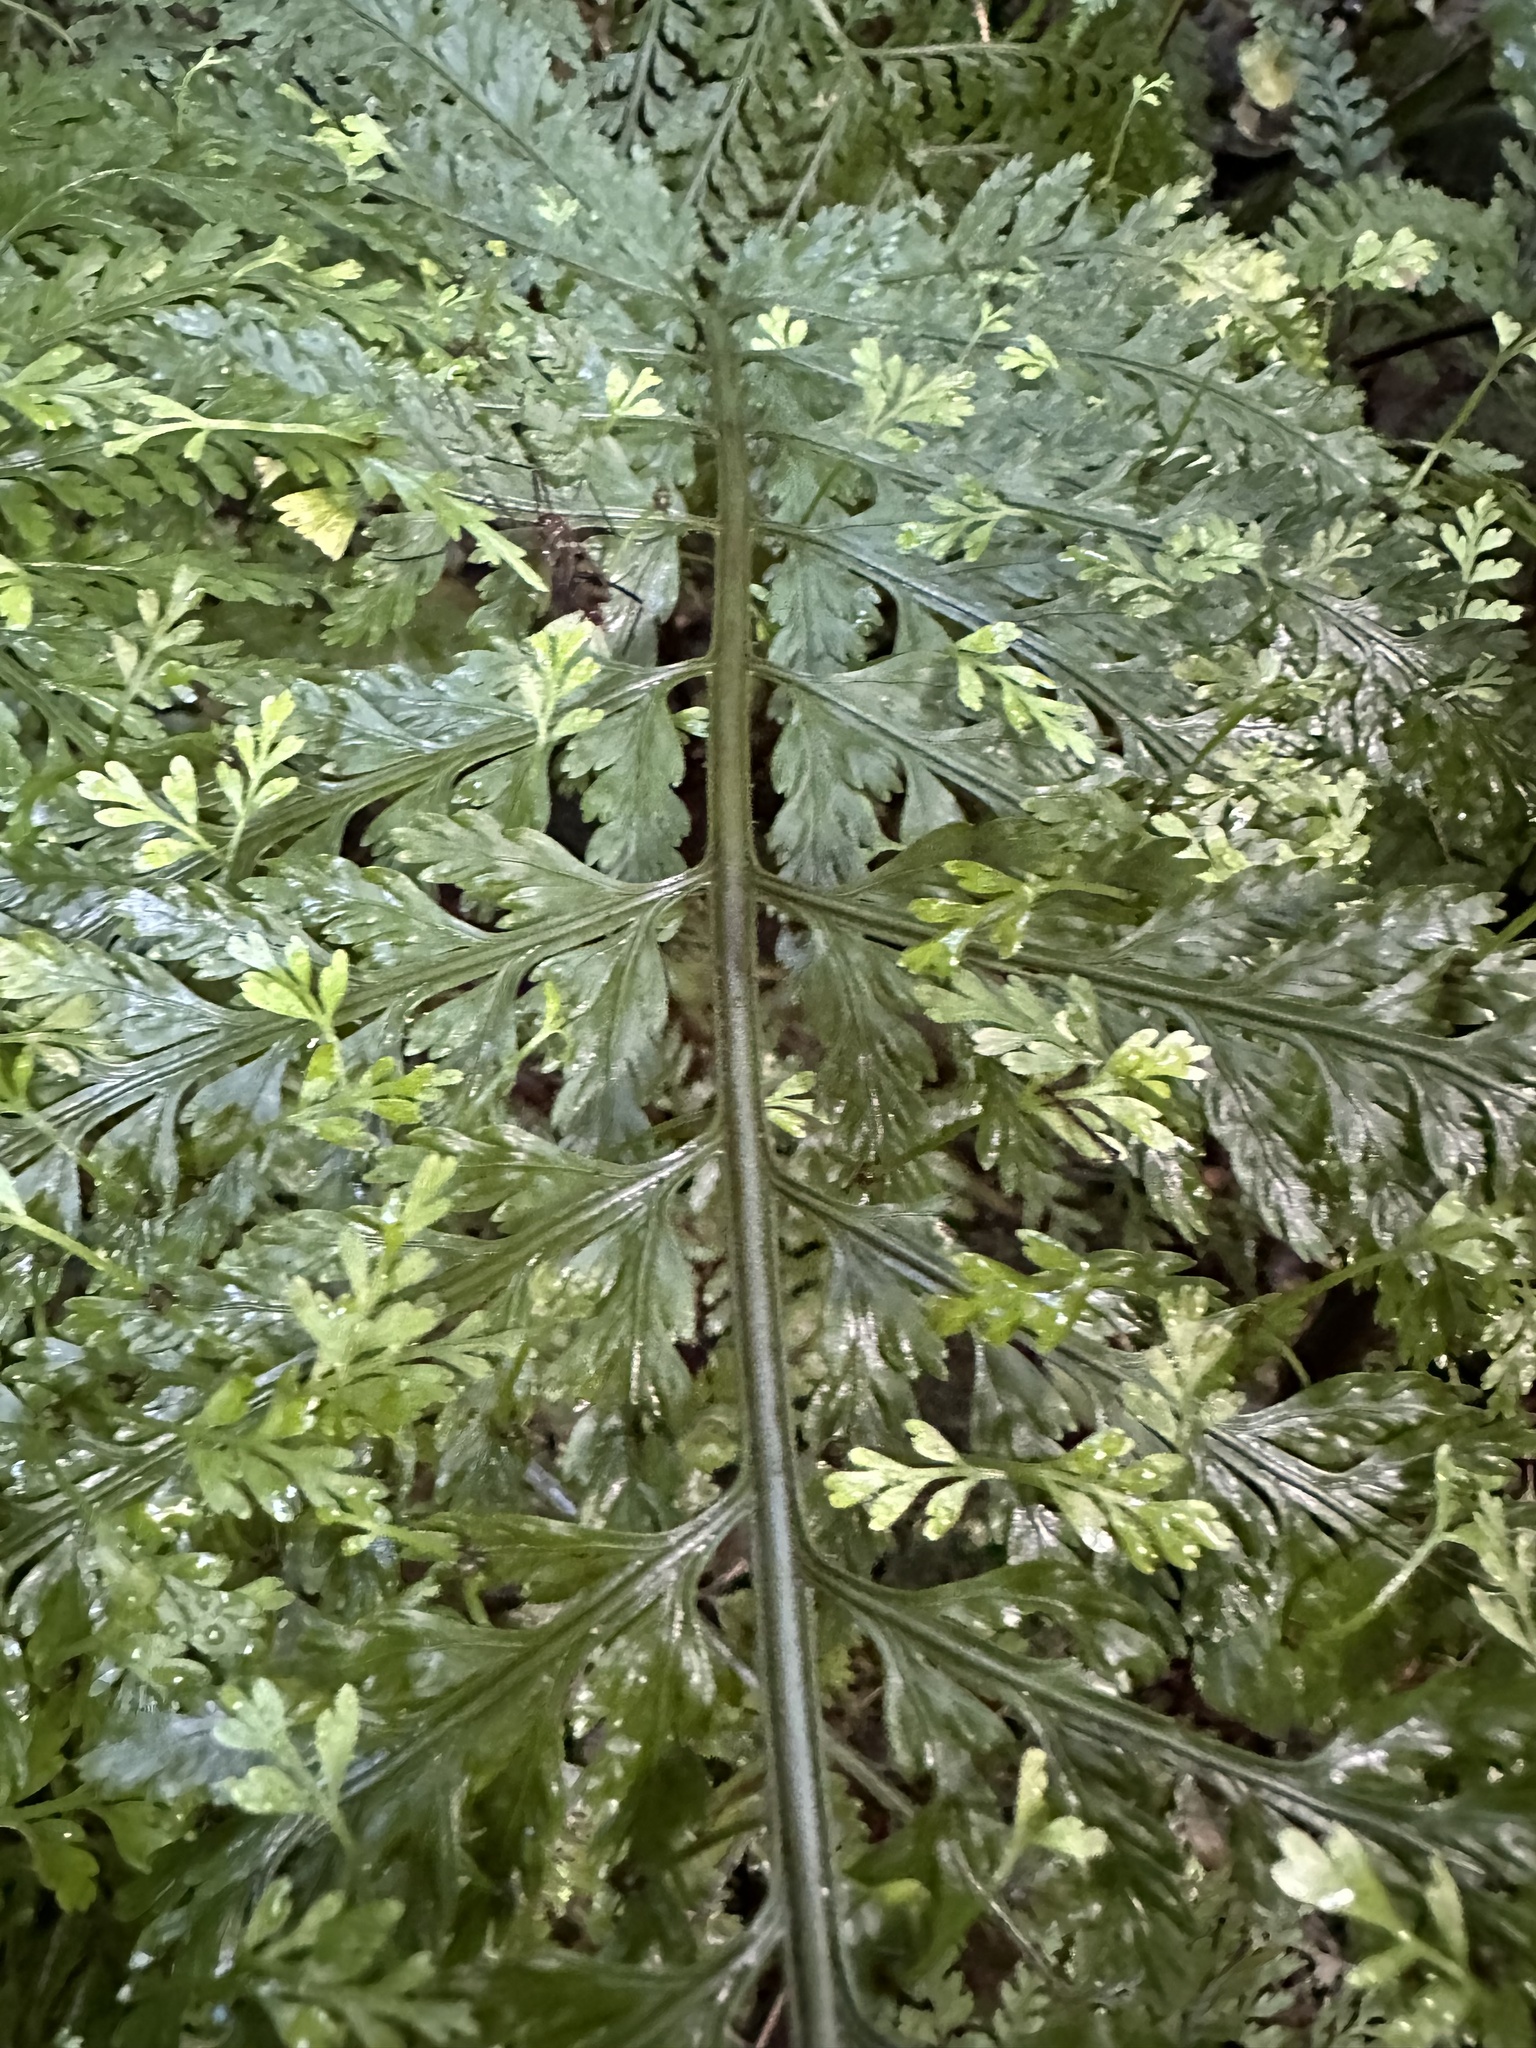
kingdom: Plantae
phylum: Tracheophyta
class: Polypodiopsida
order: Polypodiales
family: Aspleniaceae
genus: Asplenium
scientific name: Asplenium bulbiferum
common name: Mother fern
